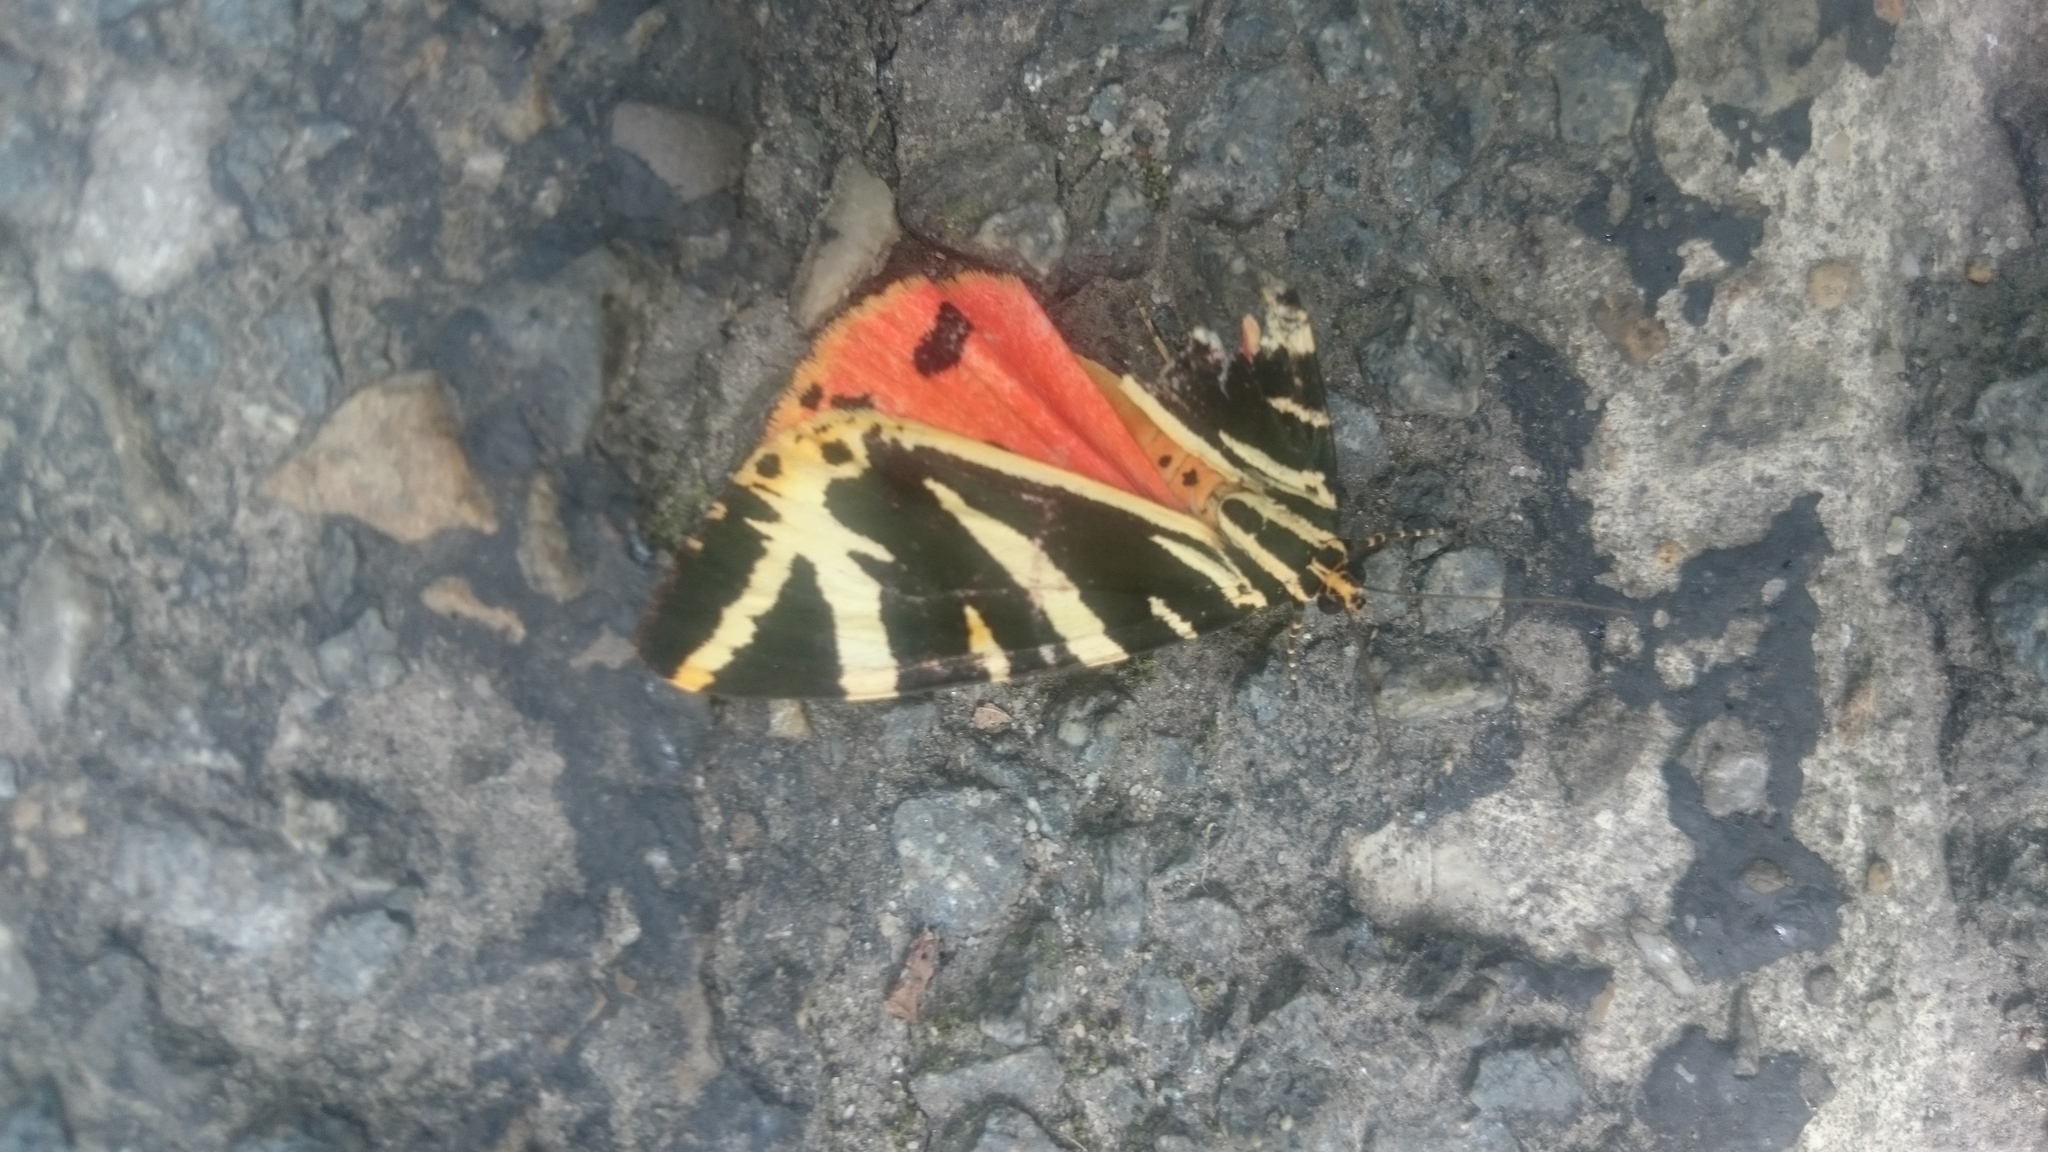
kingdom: Animalia
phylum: Arthropoda
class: Insecta
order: Lepidoptera
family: Erebidae
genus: Euplagia
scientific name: Euplagia quadripunctaria
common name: Jersey tiger
